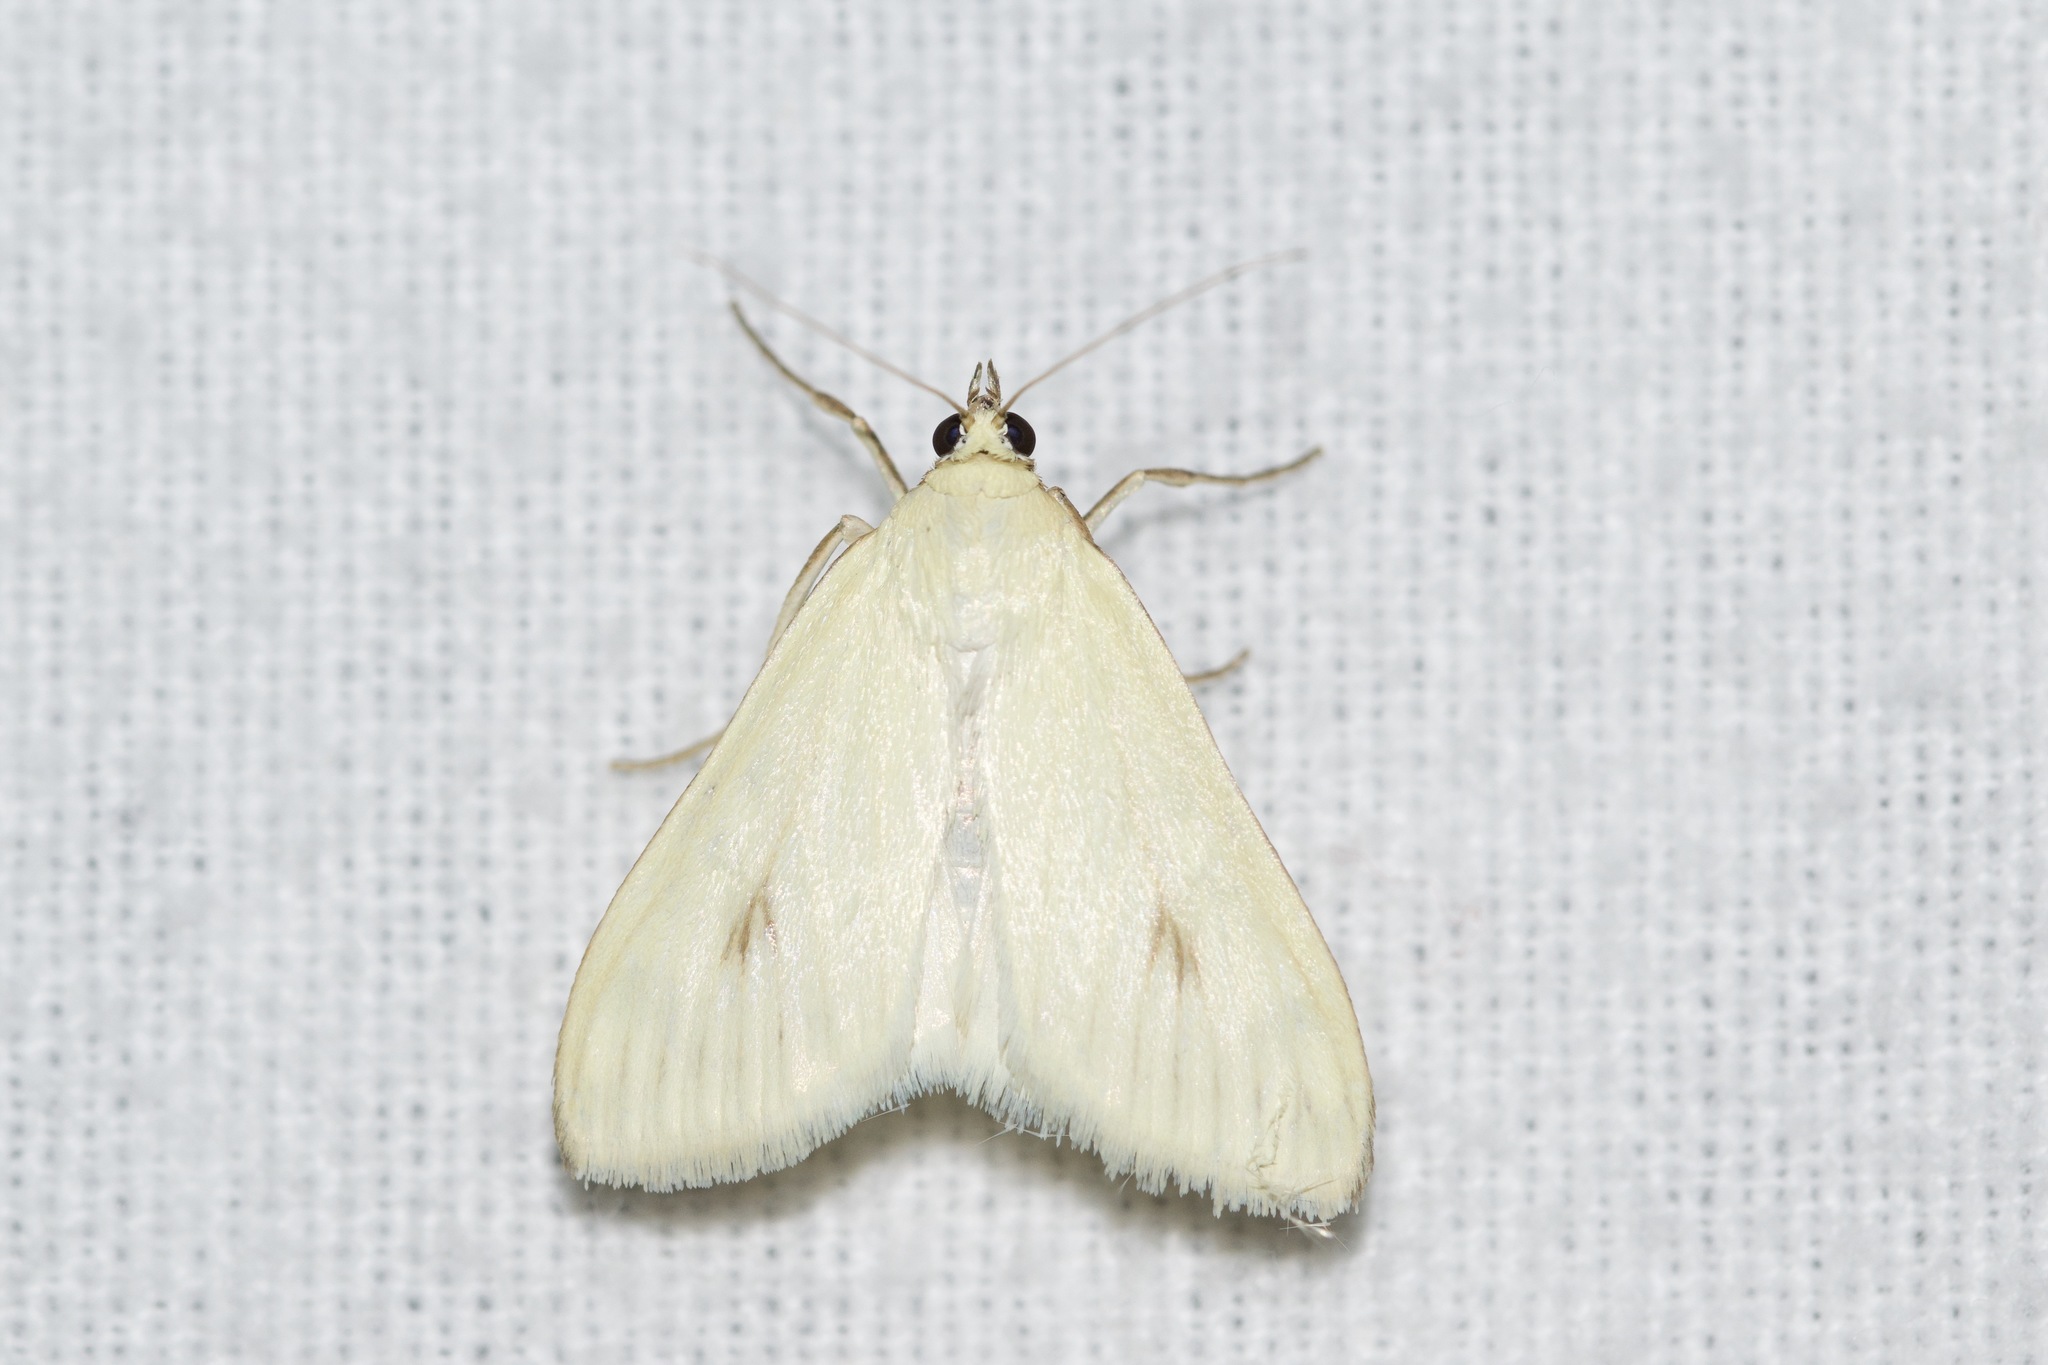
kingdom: Animalia
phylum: Arthropoda
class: Insecta
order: Lepidoptera
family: Crambidae
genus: Sitochroa
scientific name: Sitochroa palealis
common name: Greenish-yellow sitochroa moth
